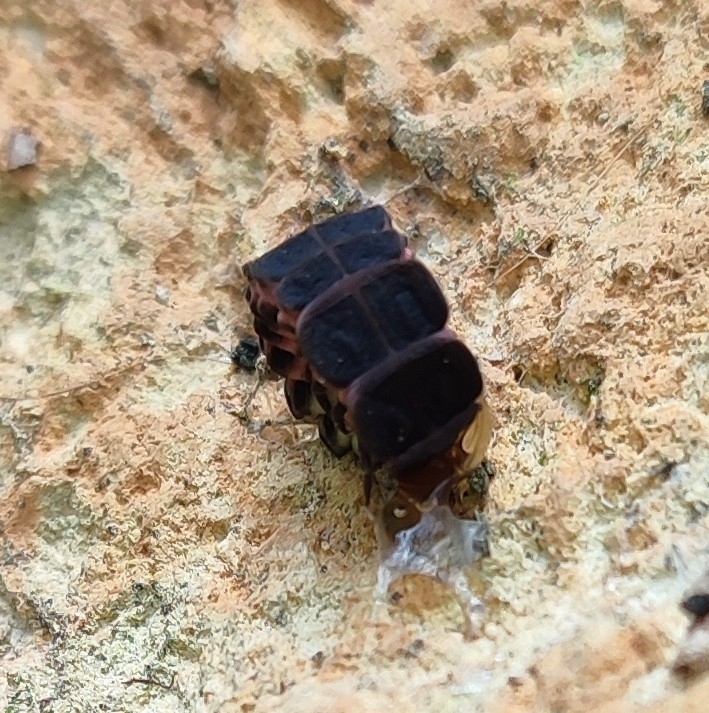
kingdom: Animalia
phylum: Arthropoda
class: Insecta
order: Coleoptera
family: Lampyridae
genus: Nyctophila
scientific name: Nyctophila reichii
